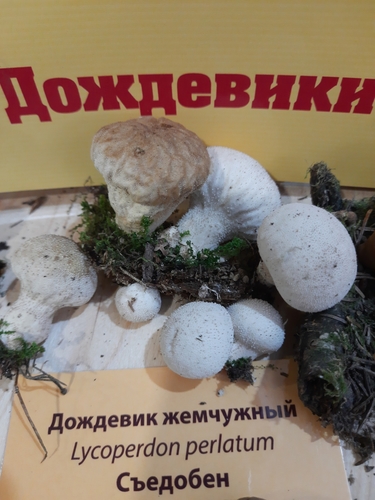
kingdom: Fungi
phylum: Basidiomycota
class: Agaricomycetes
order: Agaricales
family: Lycoperdaceae
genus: Lycoperdon
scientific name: Lycoperdon perlatum
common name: Common puffball
